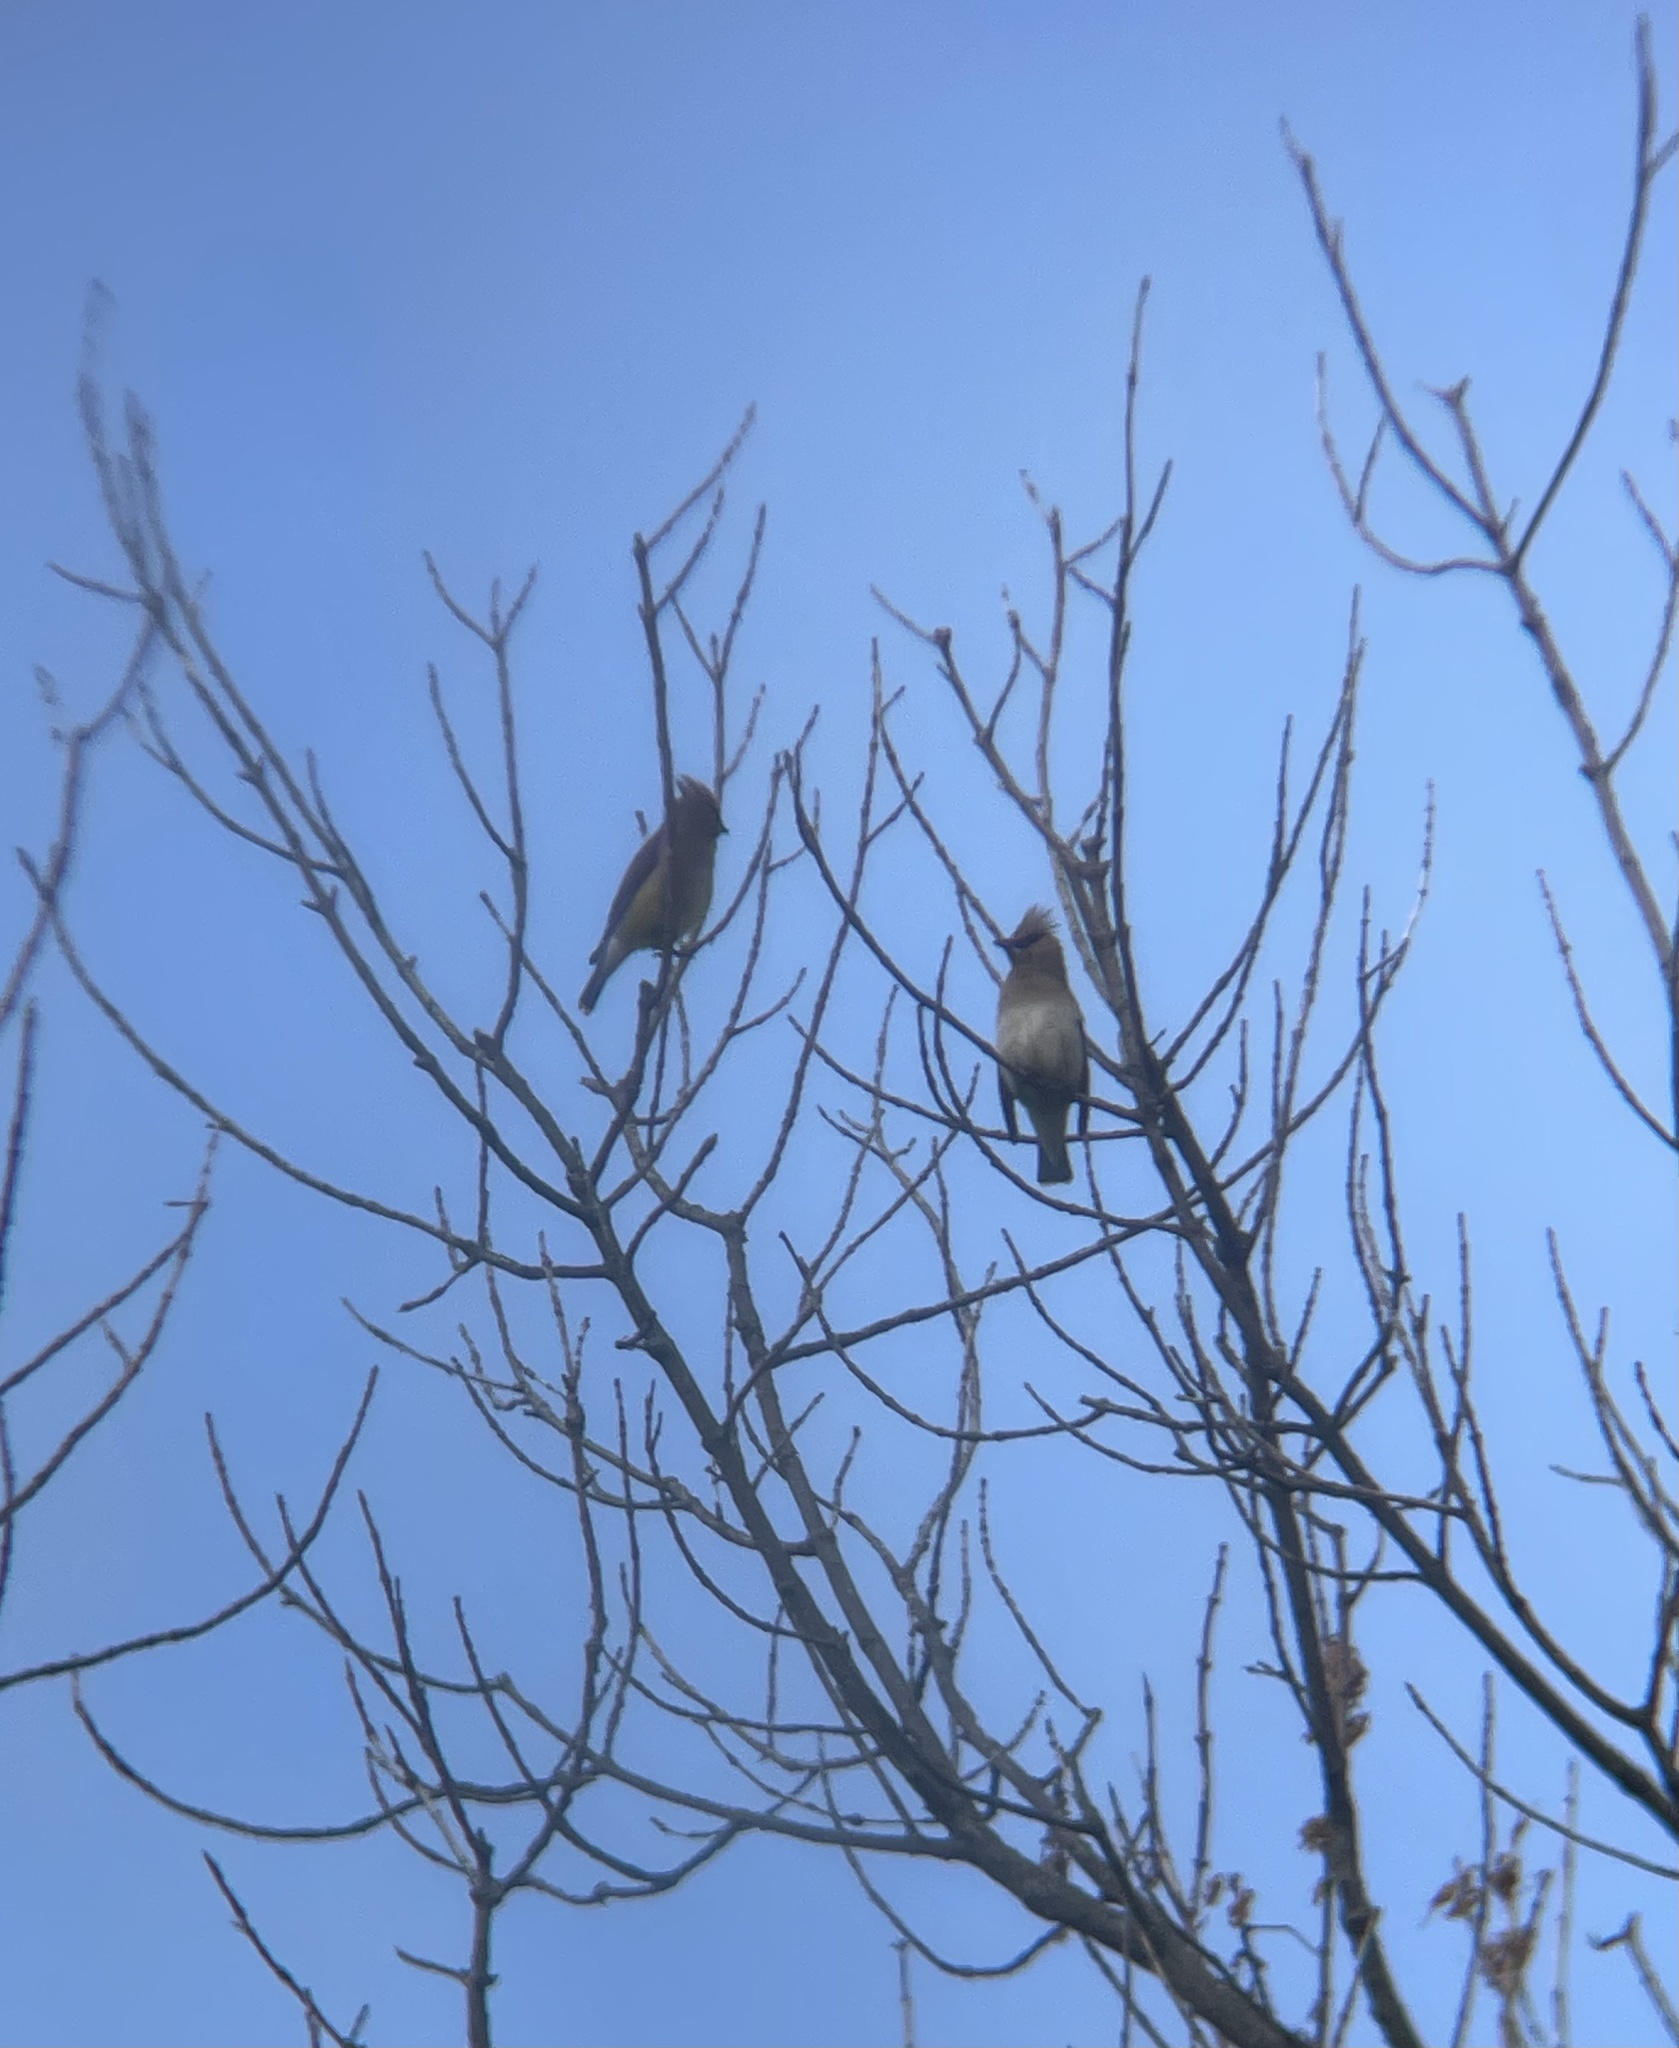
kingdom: Animalia
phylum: Chordata
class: Aves
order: Passeriformes
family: Bombycillidae
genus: Bombycilla
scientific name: Bombycilla cedrorum
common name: Cedar waxwing
